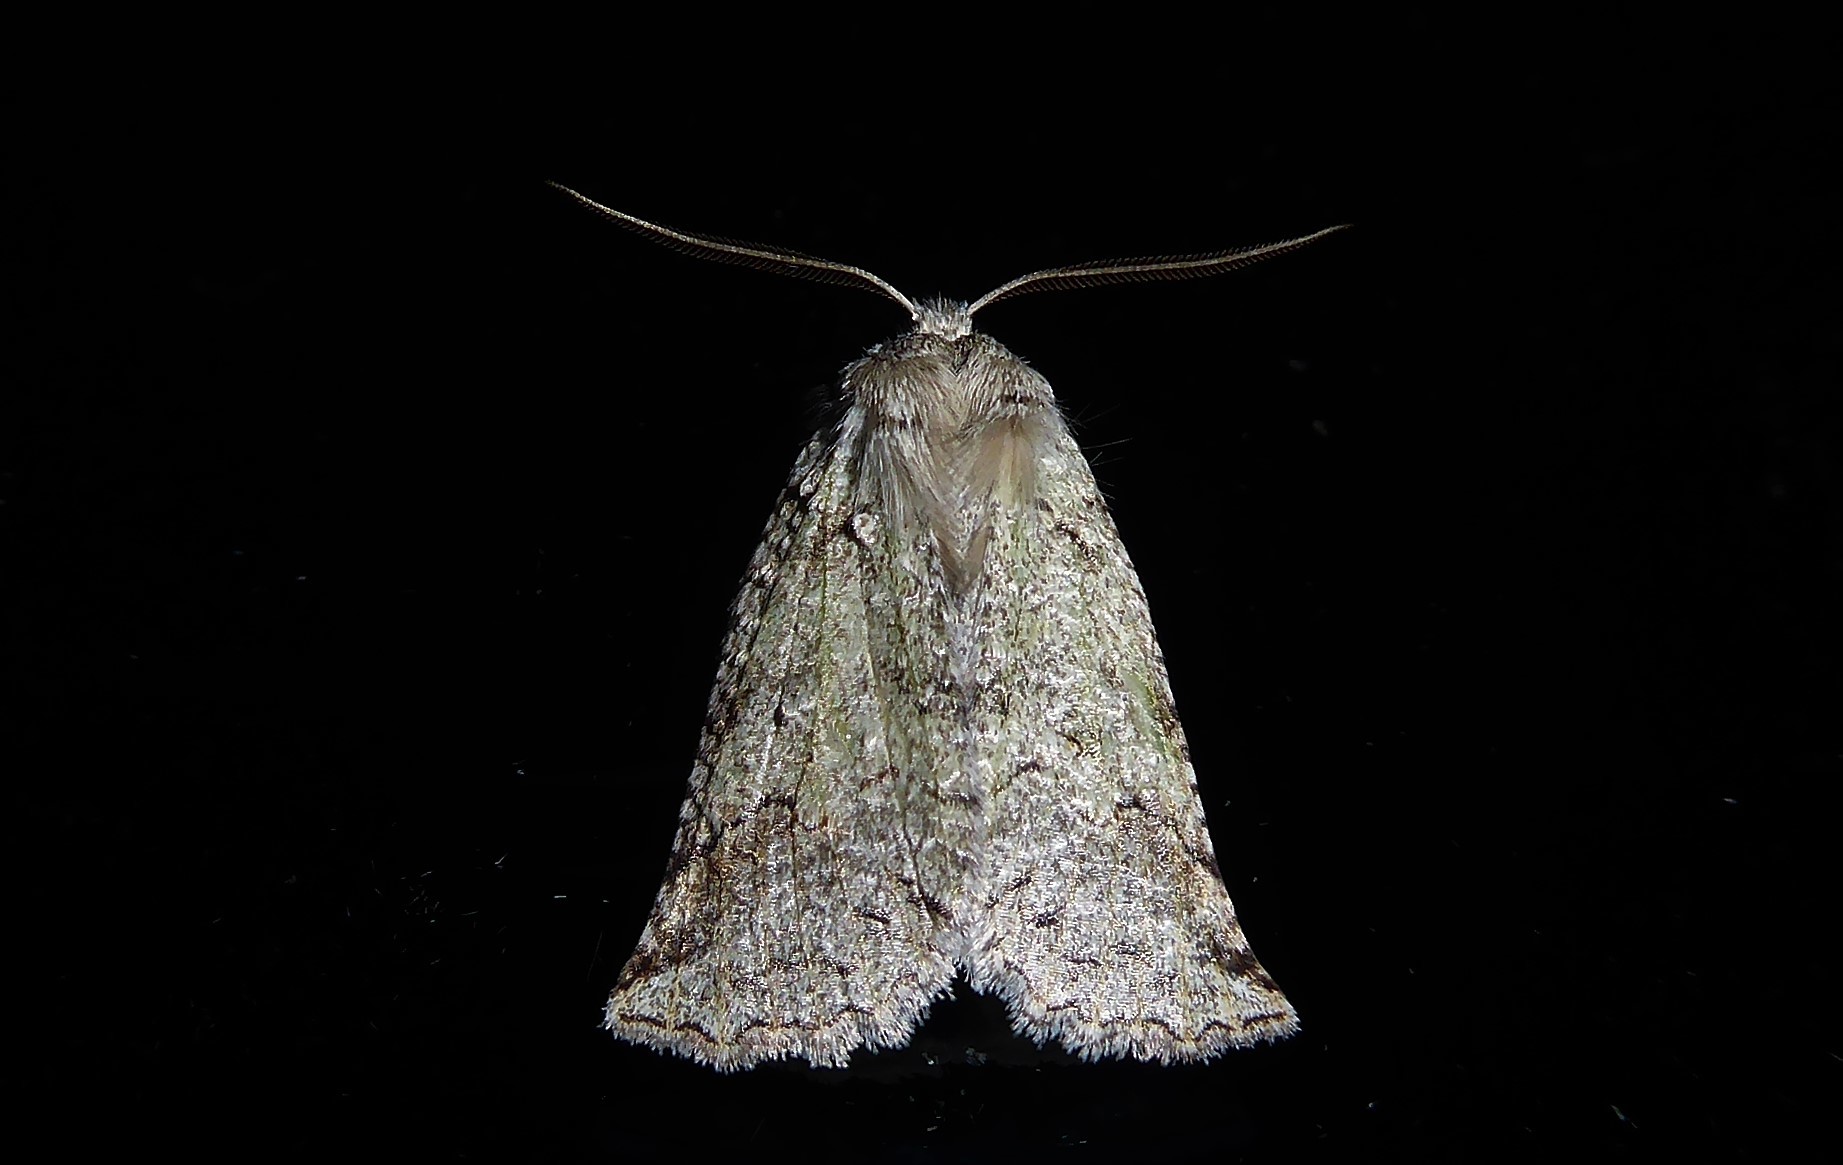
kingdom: Animalia
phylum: Arthropoda
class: Insecta
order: Lepidoptera
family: Geometridae
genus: Declana
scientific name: Declana floccosa
